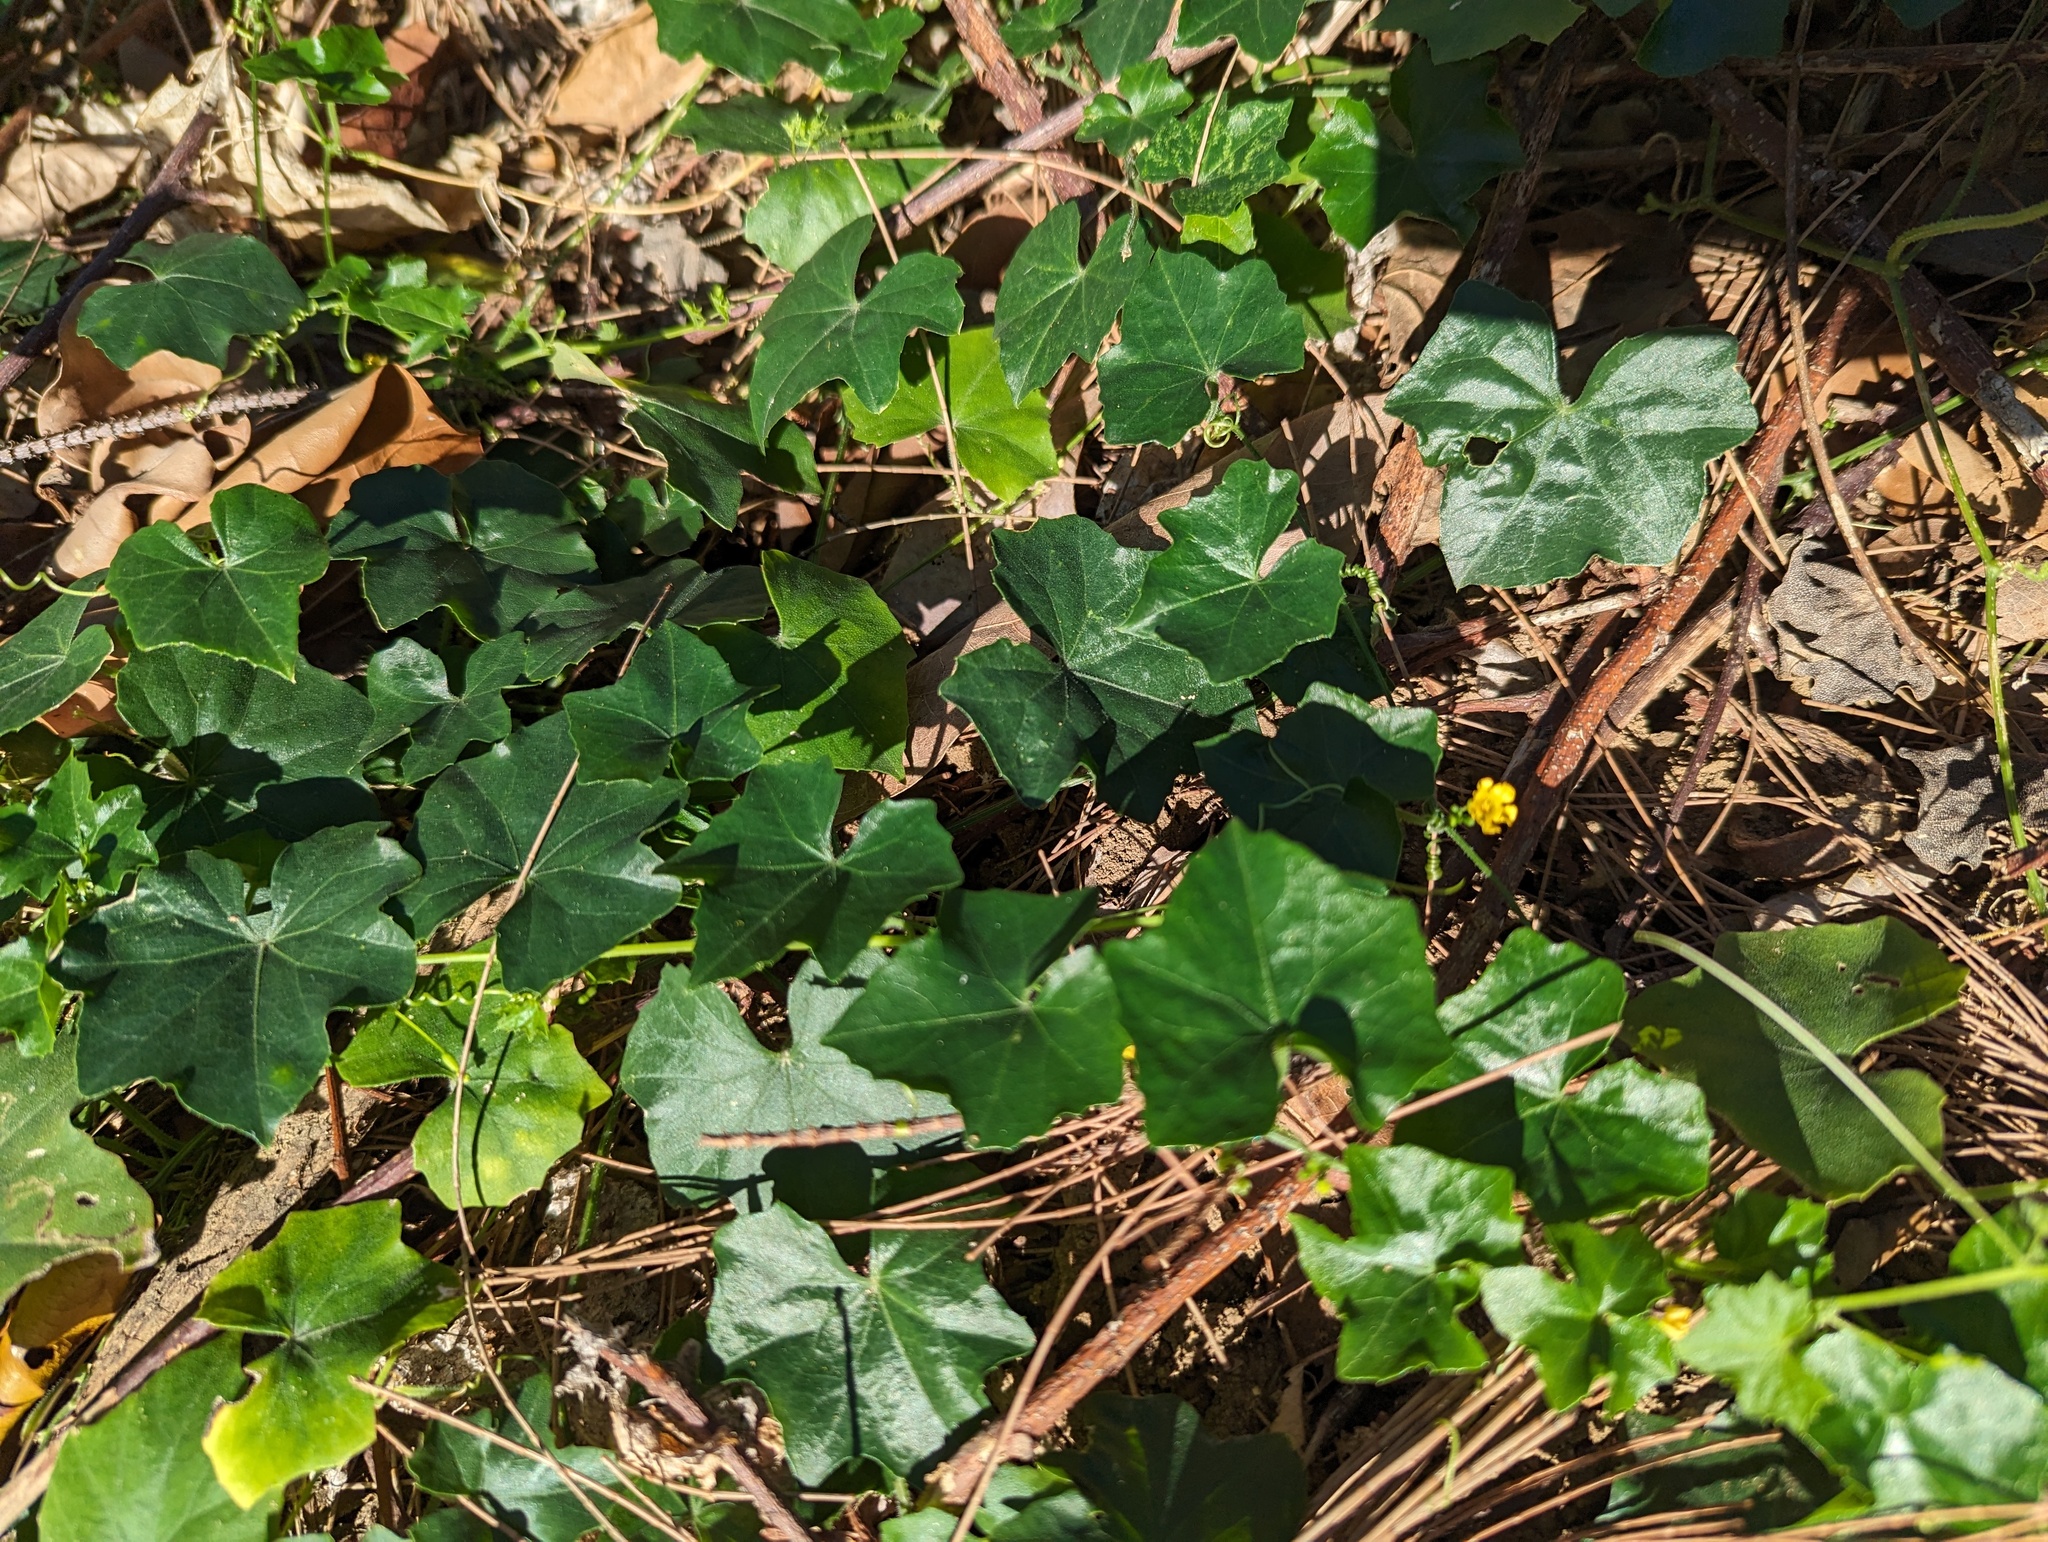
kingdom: Plantae
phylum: Tracheophyta
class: Magnoliopsida
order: Cucurbitales
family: Cucurbitaceae
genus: Melothria
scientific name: Melothria pendula
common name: Creeping-cucumber
